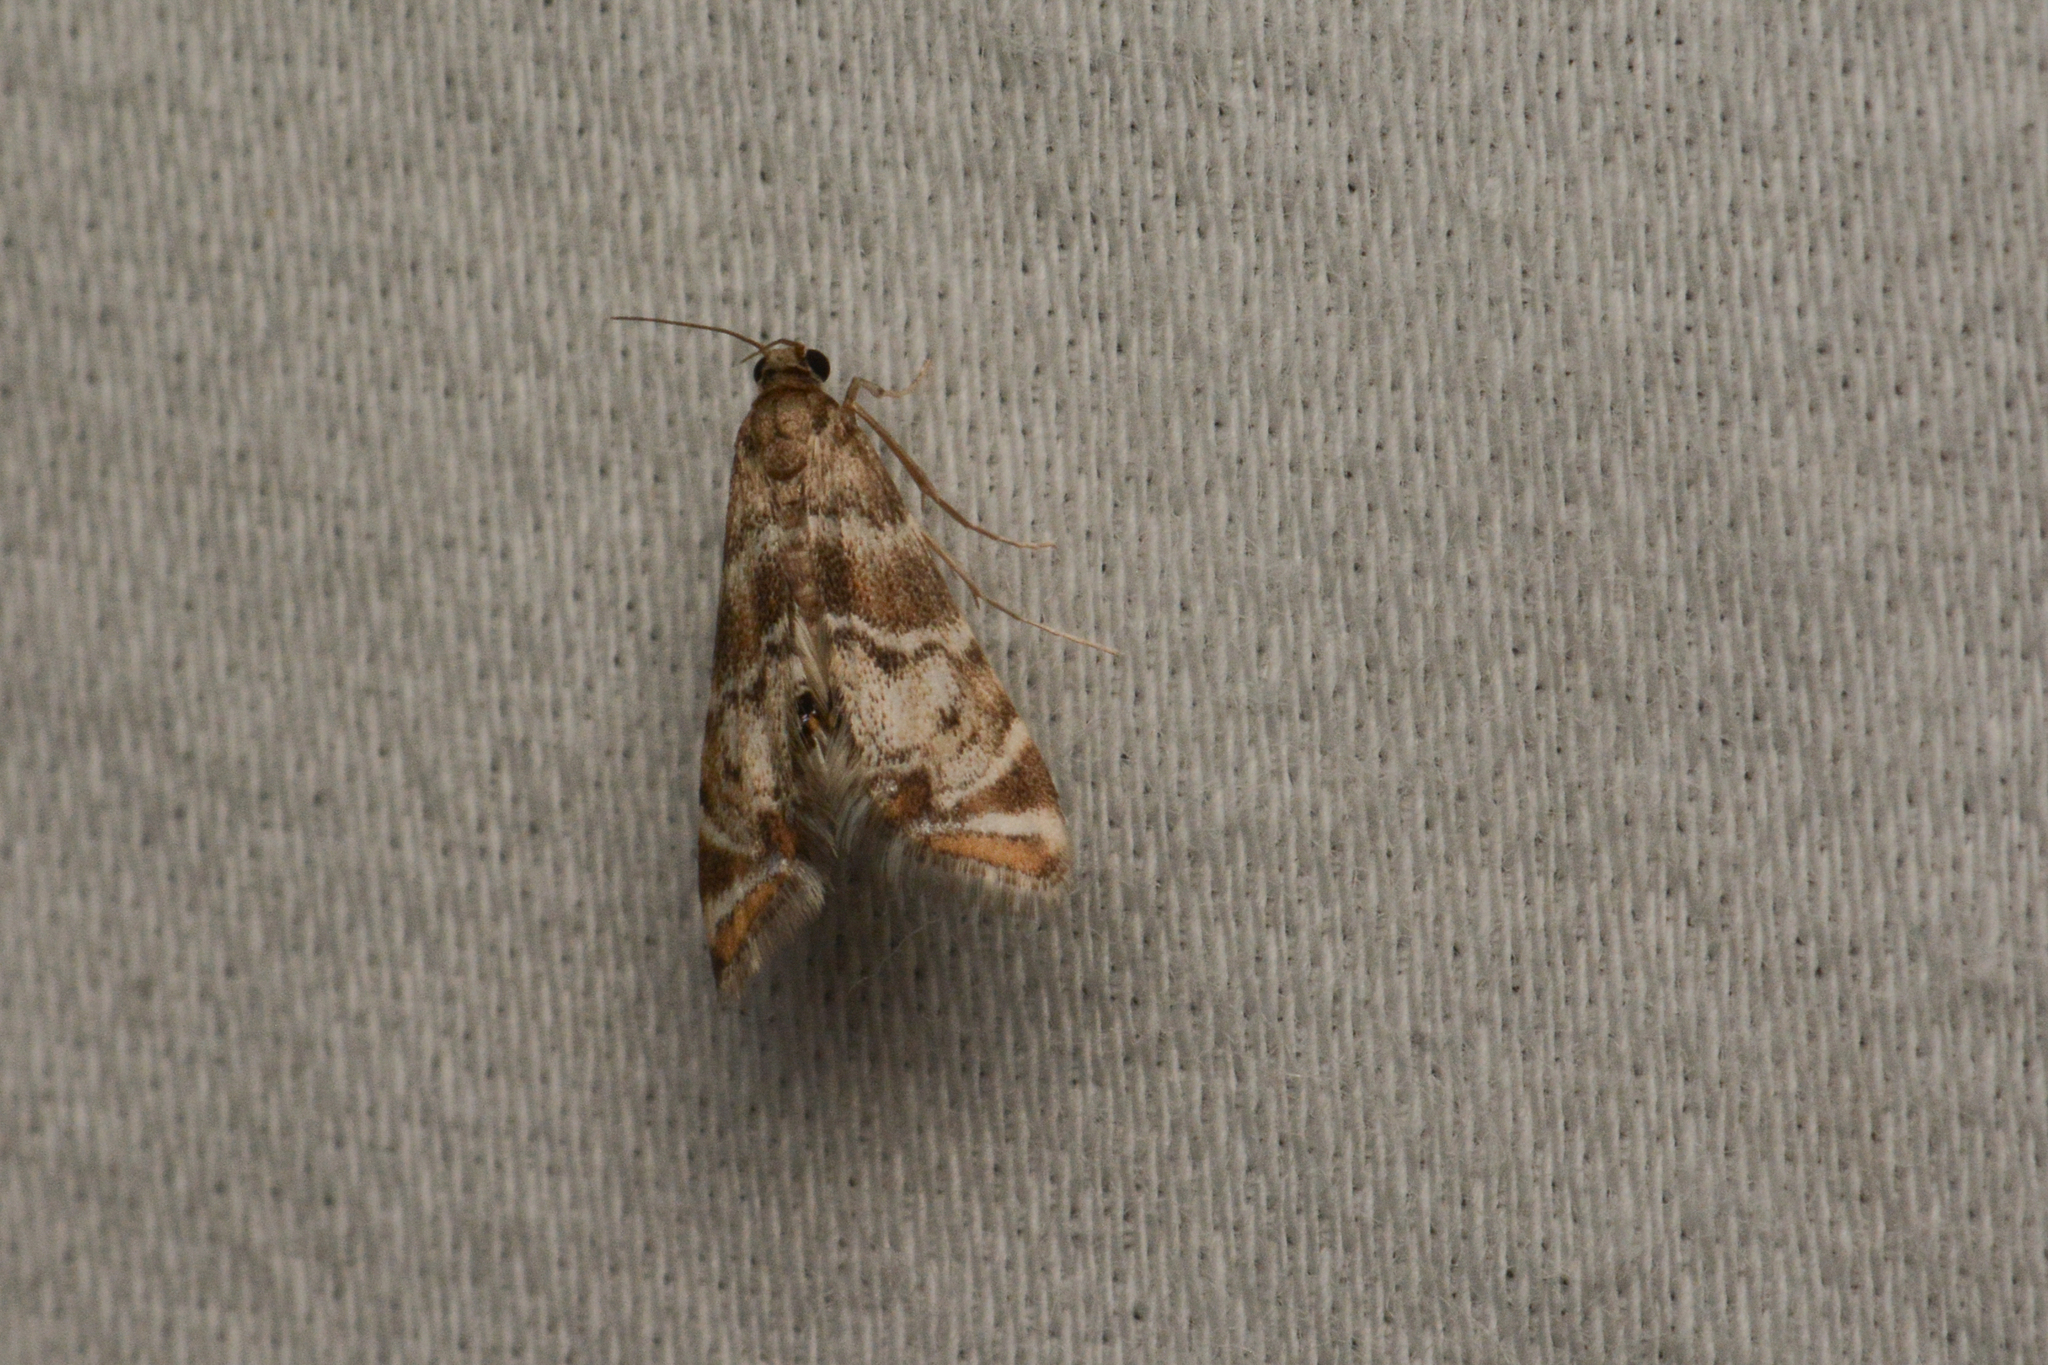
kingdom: Animalia
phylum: Arthropoda
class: Insecta
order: Lepidoptera
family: Crambidae
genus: Petrophila
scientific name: Petrophila confusalis
